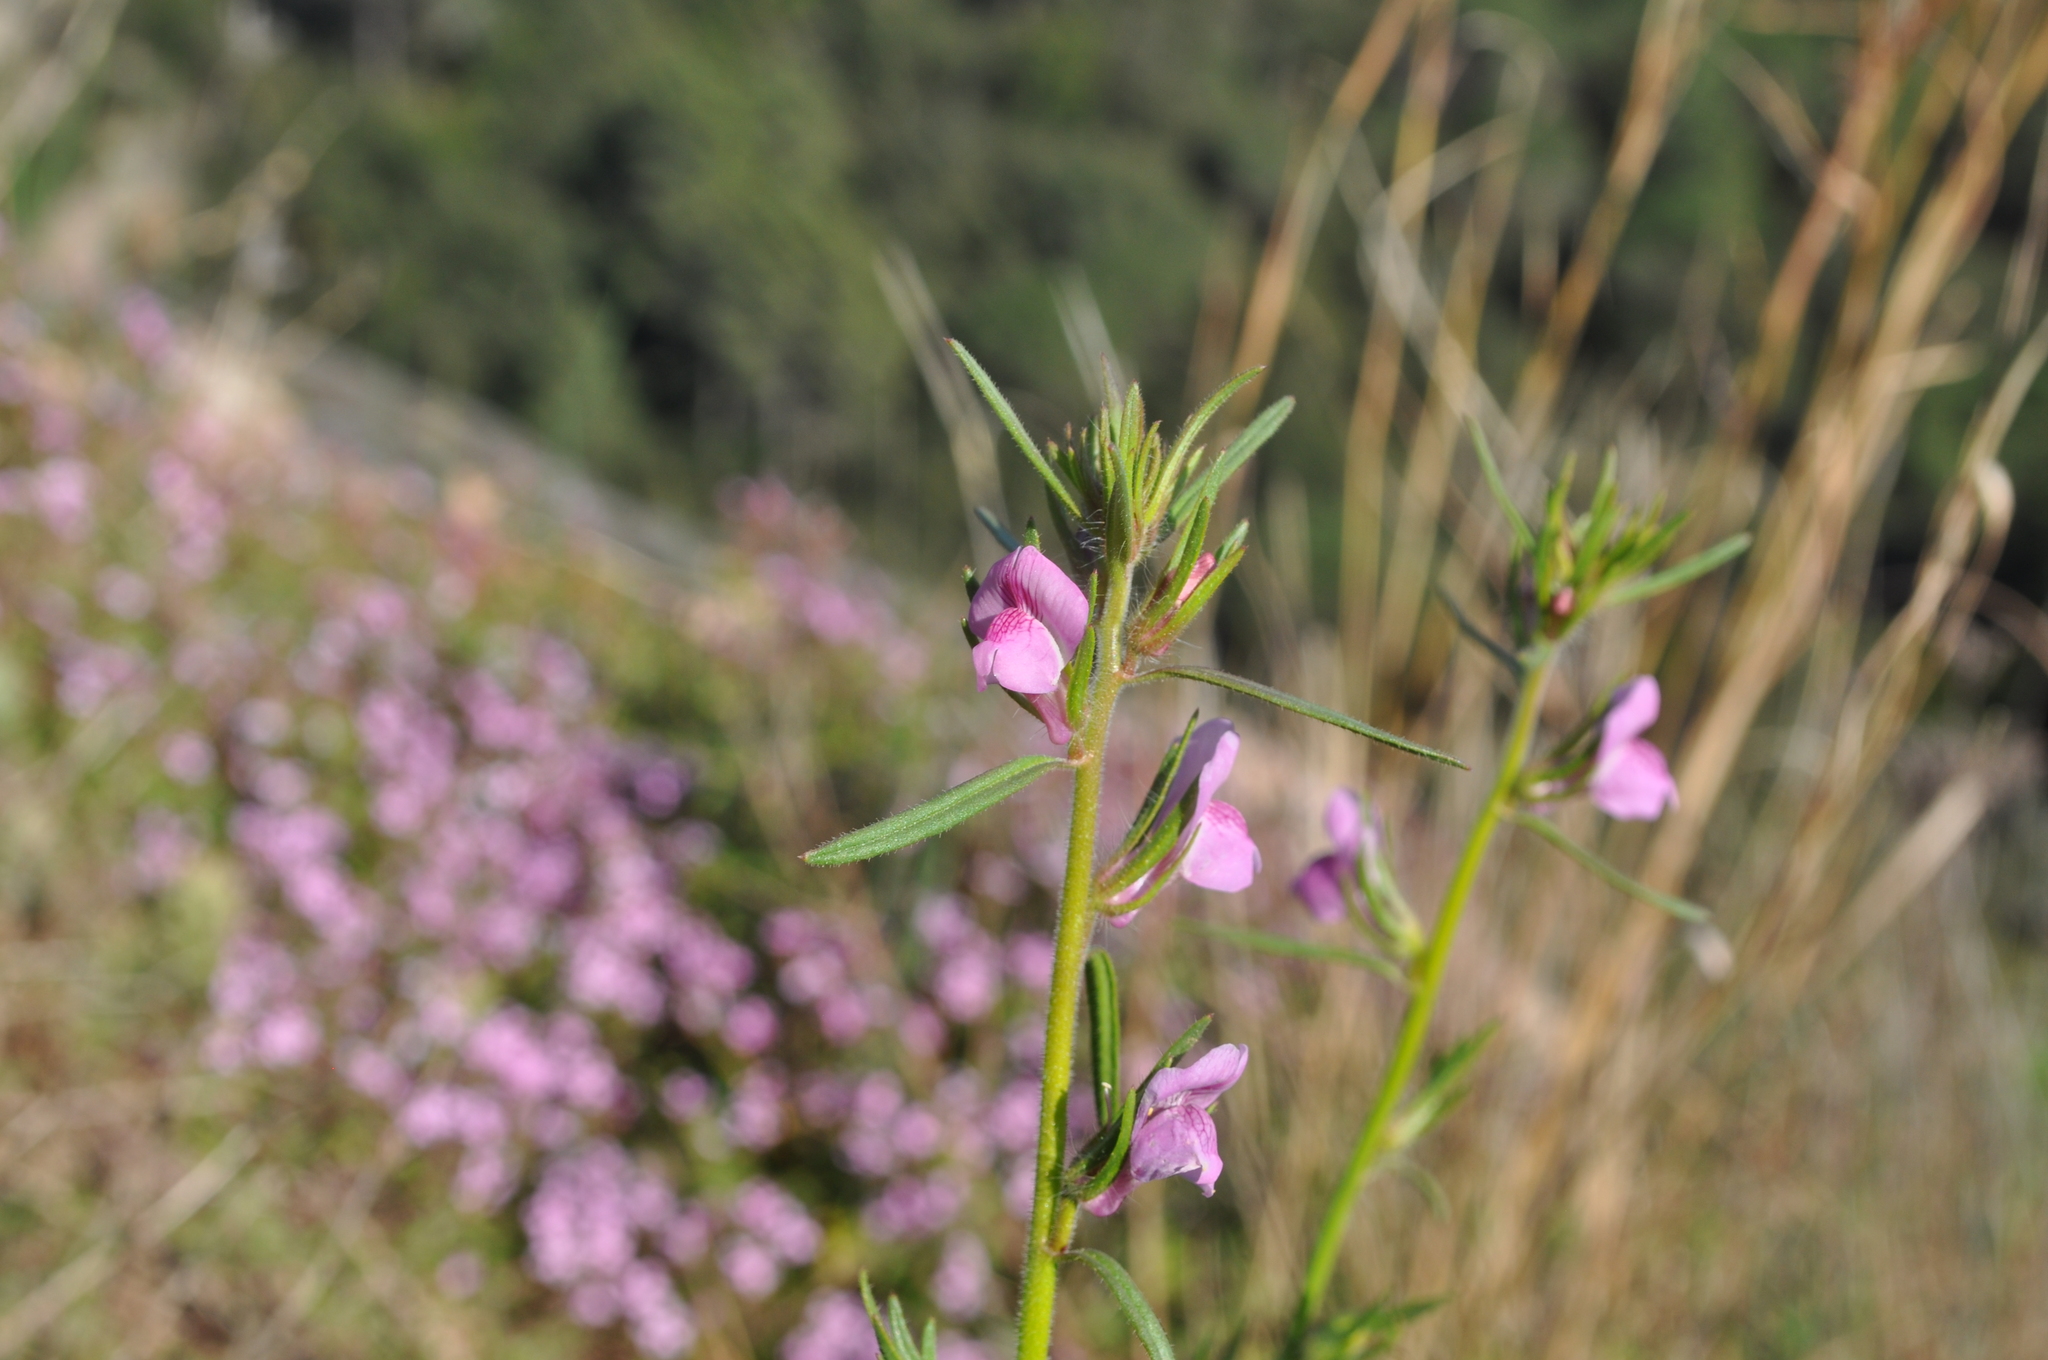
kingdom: Plantae
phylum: Tracheophyta
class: Magnoliopsida
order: Lamiales
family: Plantaginaceae
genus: Misopates
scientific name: Misopates orontium
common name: Weasel's-snout
